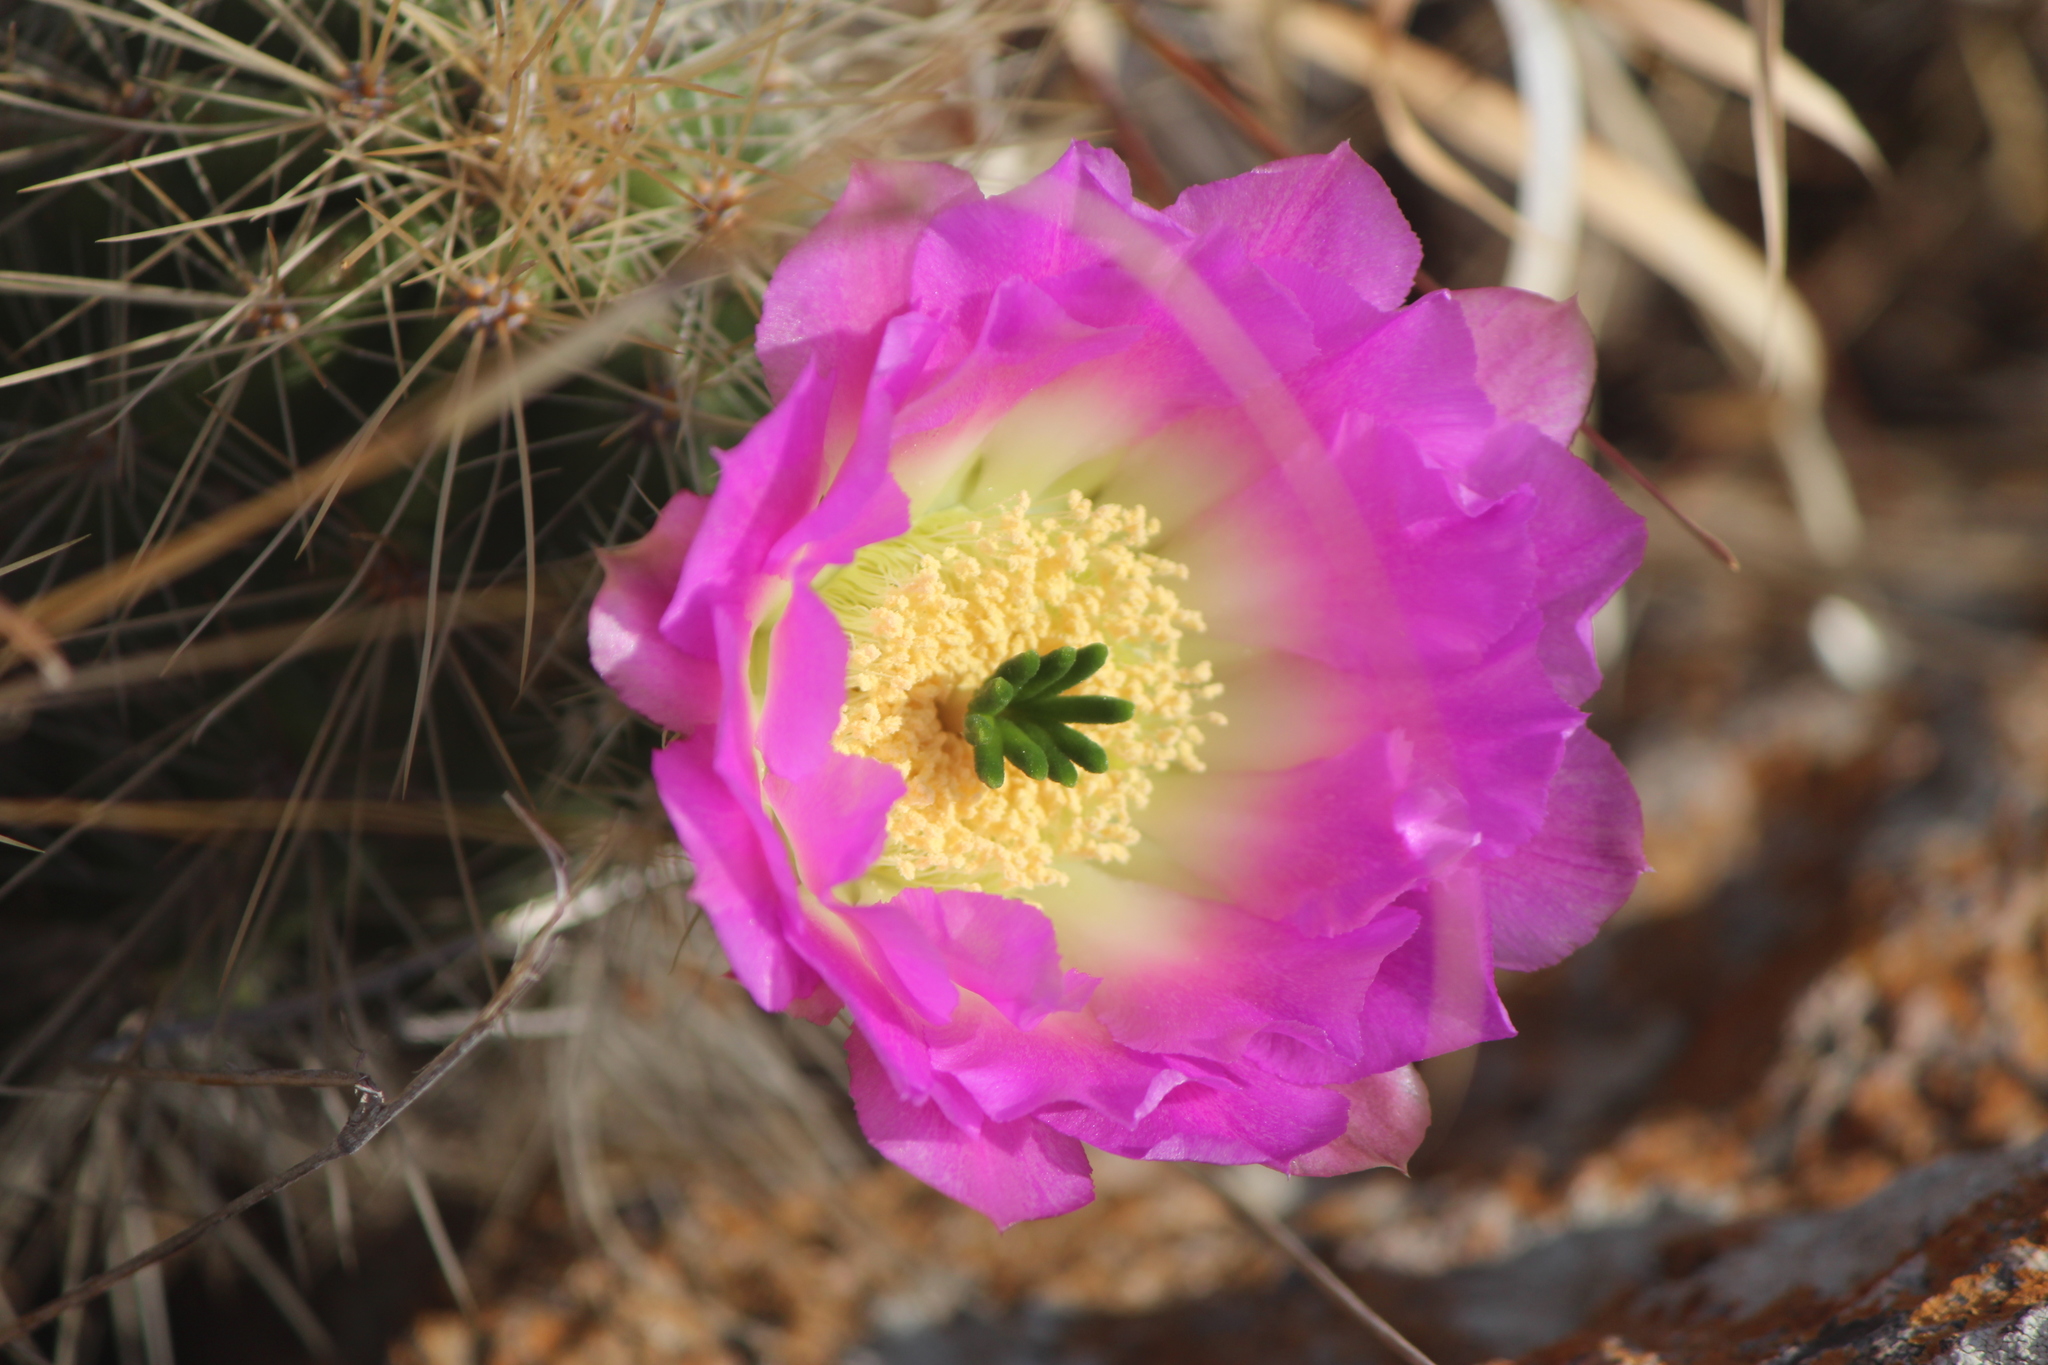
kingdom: Plantae
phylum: Tracheophyta
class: Magnoliopsida
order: Caryophyllales
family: Cactaceae
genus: Echinocereus
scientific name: Echinocereus cinerascens
